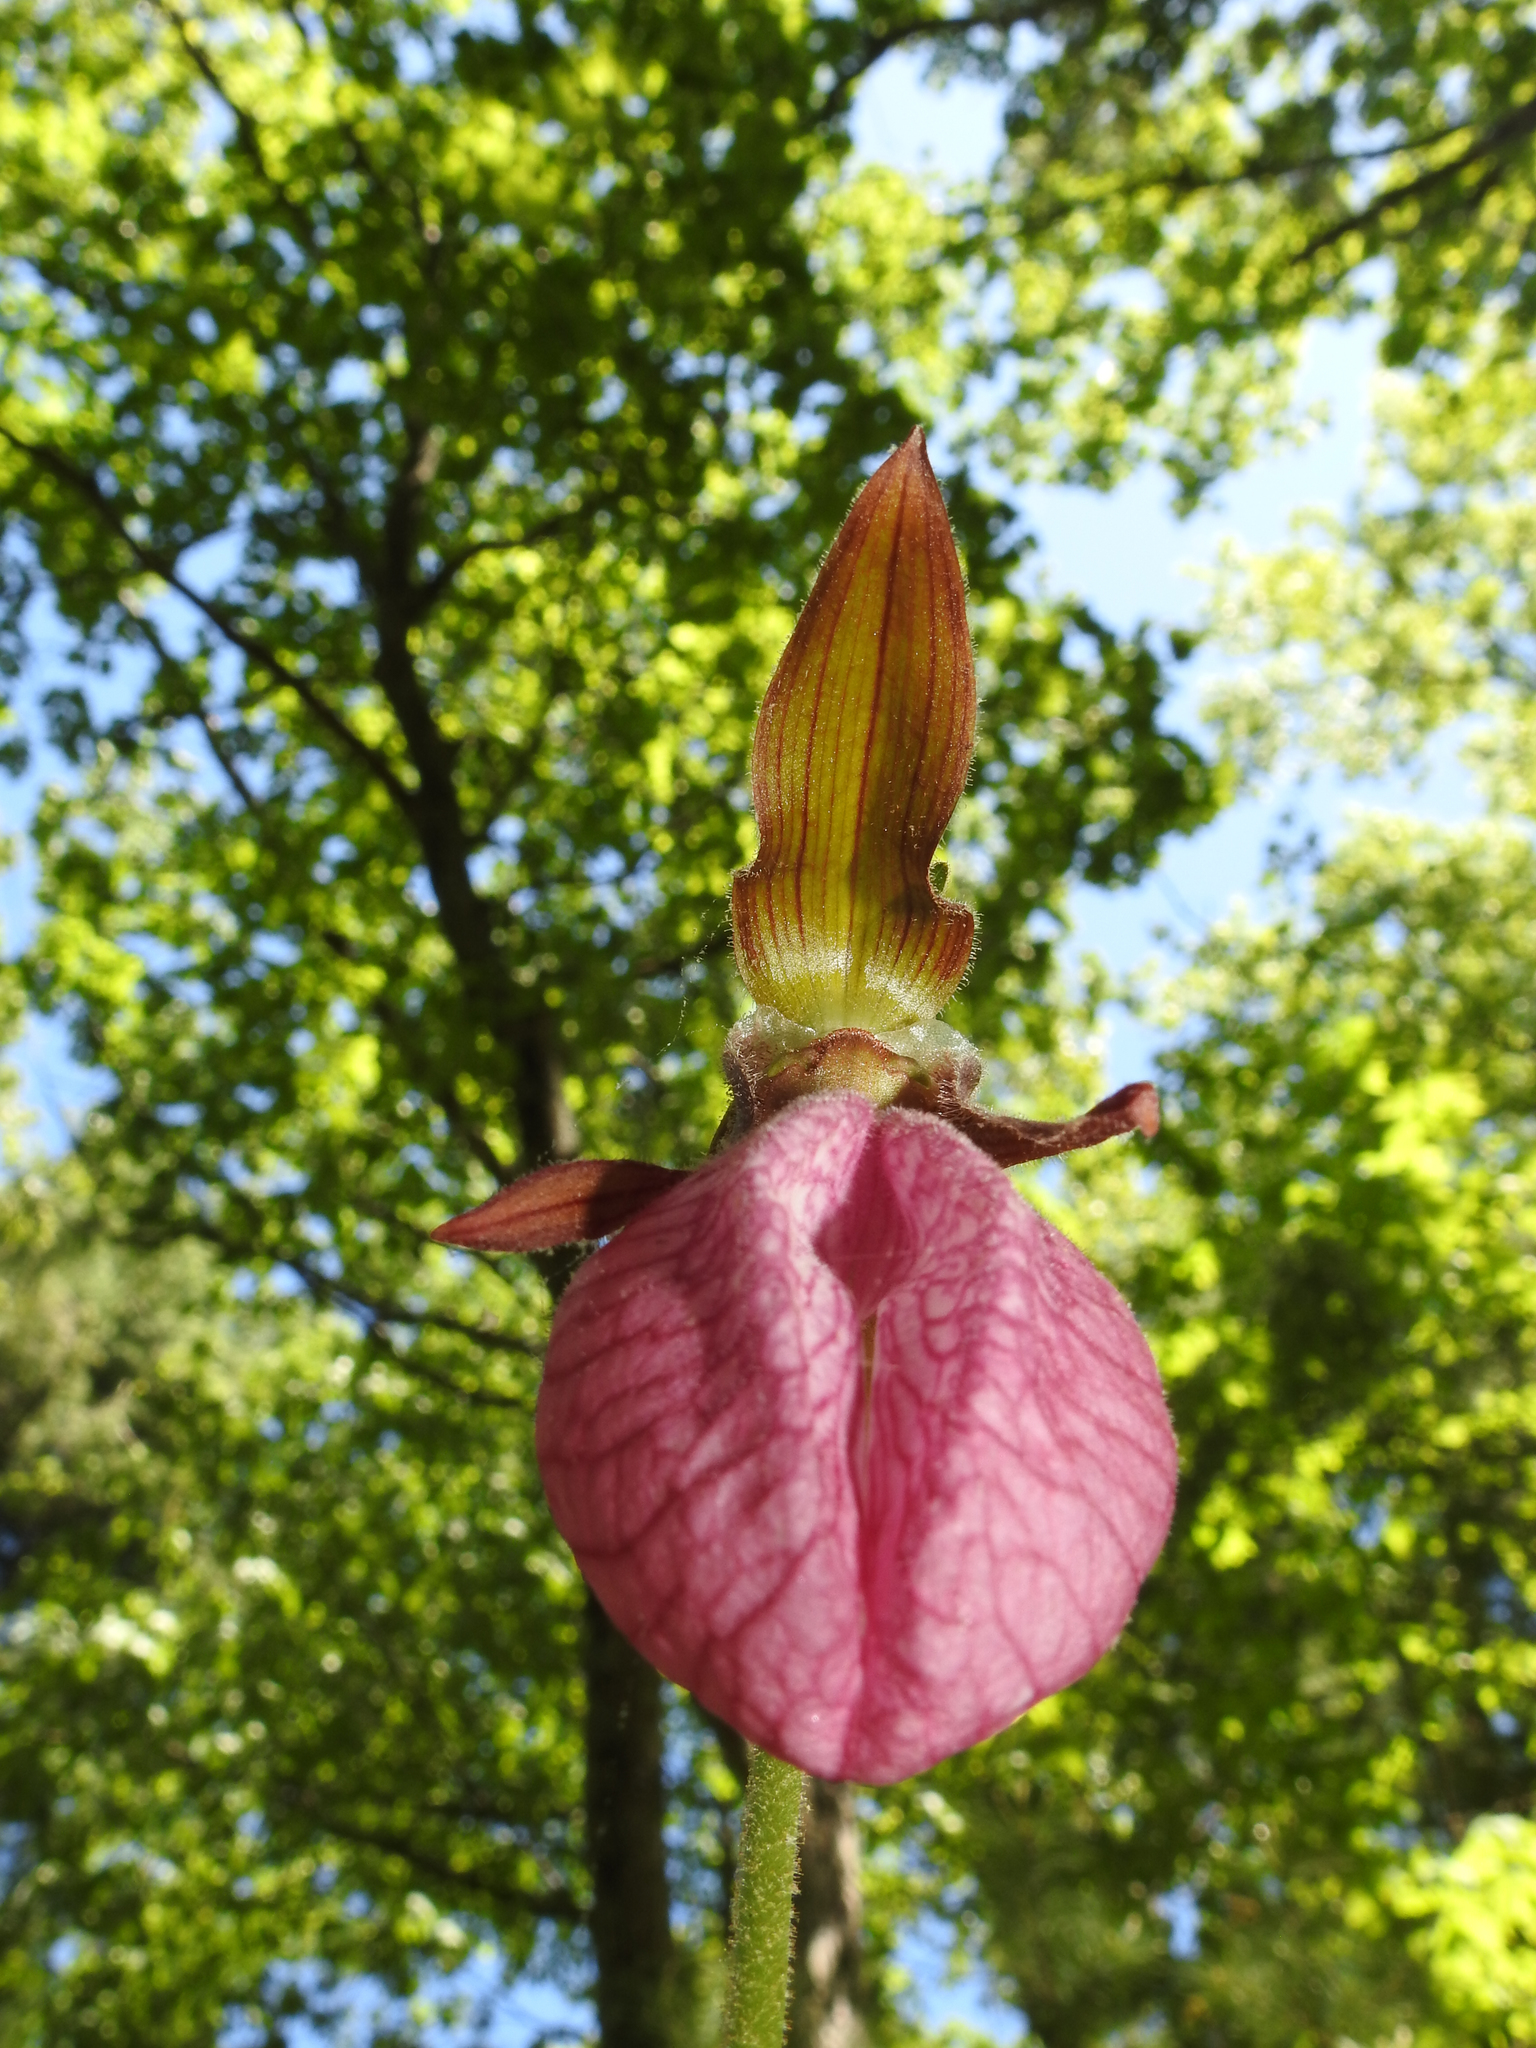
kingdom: Plantae
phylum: Tracheophyta
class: Liliopsida
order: Asparagales
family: Orchidaceae
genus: Cypripedium
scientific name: Cypripedium acaule
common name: Pink lady's-slipper
